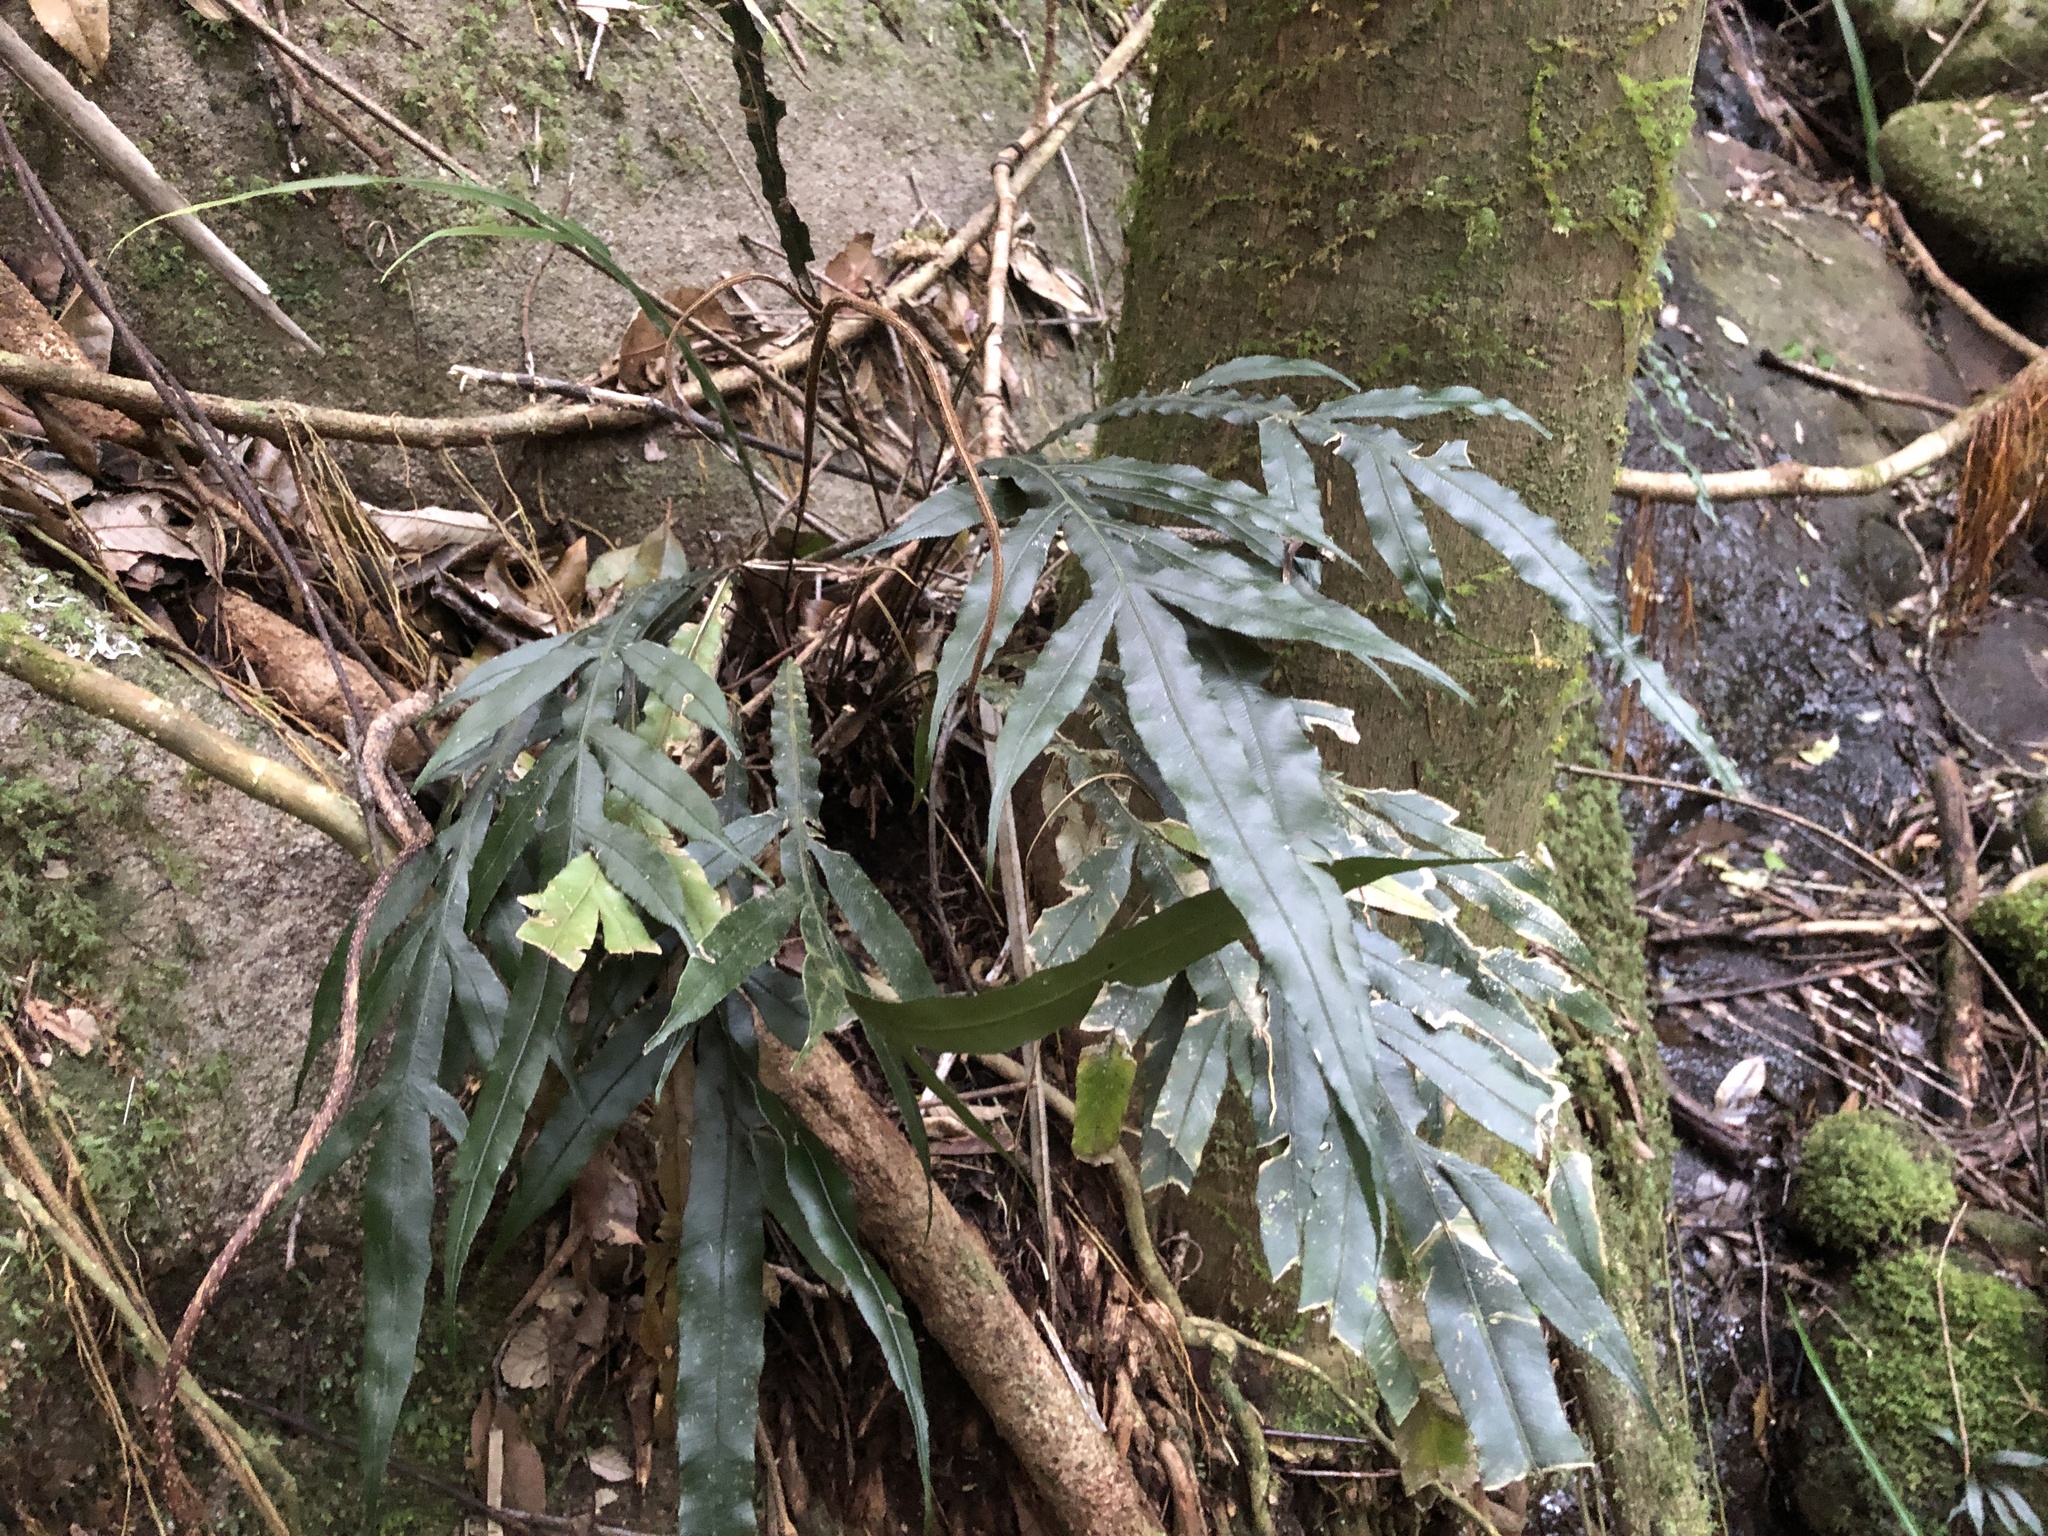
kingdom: Plantae
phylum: Tracheophyta
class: Polypodiopsida
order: Polypodiales
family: Blechnaceae
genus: Austroblechnum
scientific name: Austroblechnum patersonii
